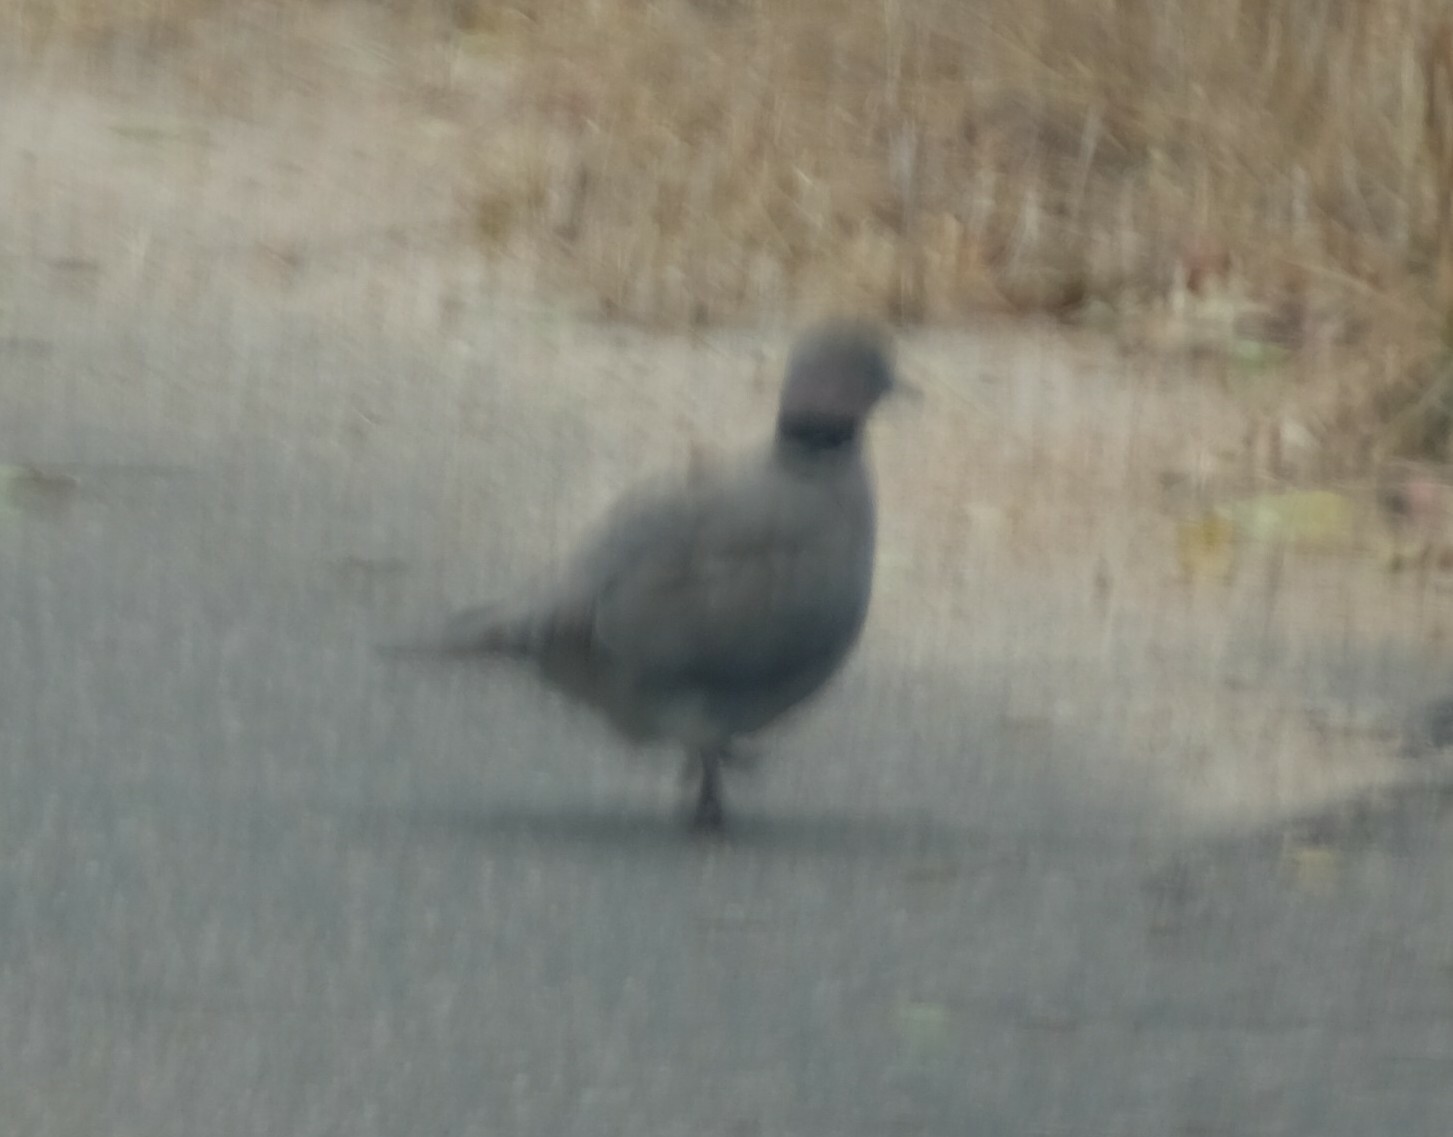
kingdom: Animalia
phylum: Chordata
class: Aves
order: Columbiformes
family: Columbidae
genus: Streptopelia
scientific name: Streptopelia capicola
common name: Ring-necked dove
